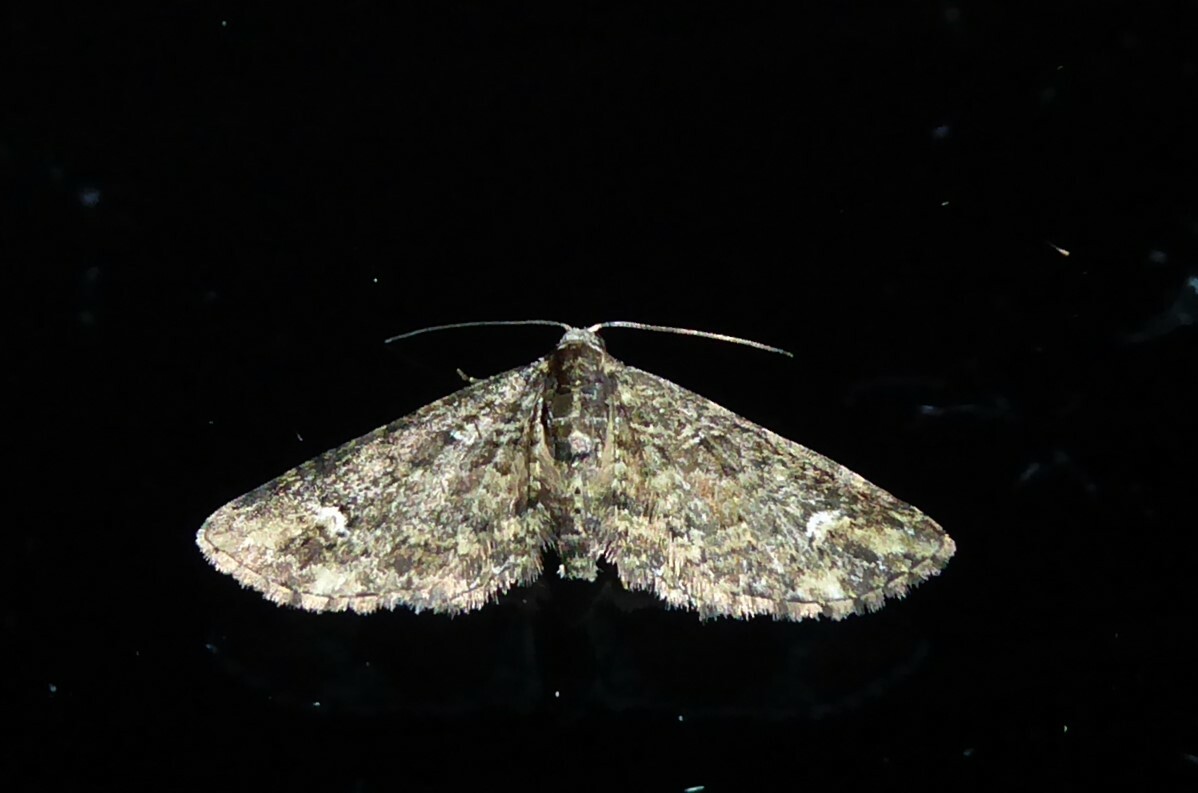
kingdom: Animalia
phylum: Arthropoda
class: Insecta
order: Lepidoptera
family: Geometridae
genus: Pasiphilodes
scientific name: Pasiphilodes testulata
